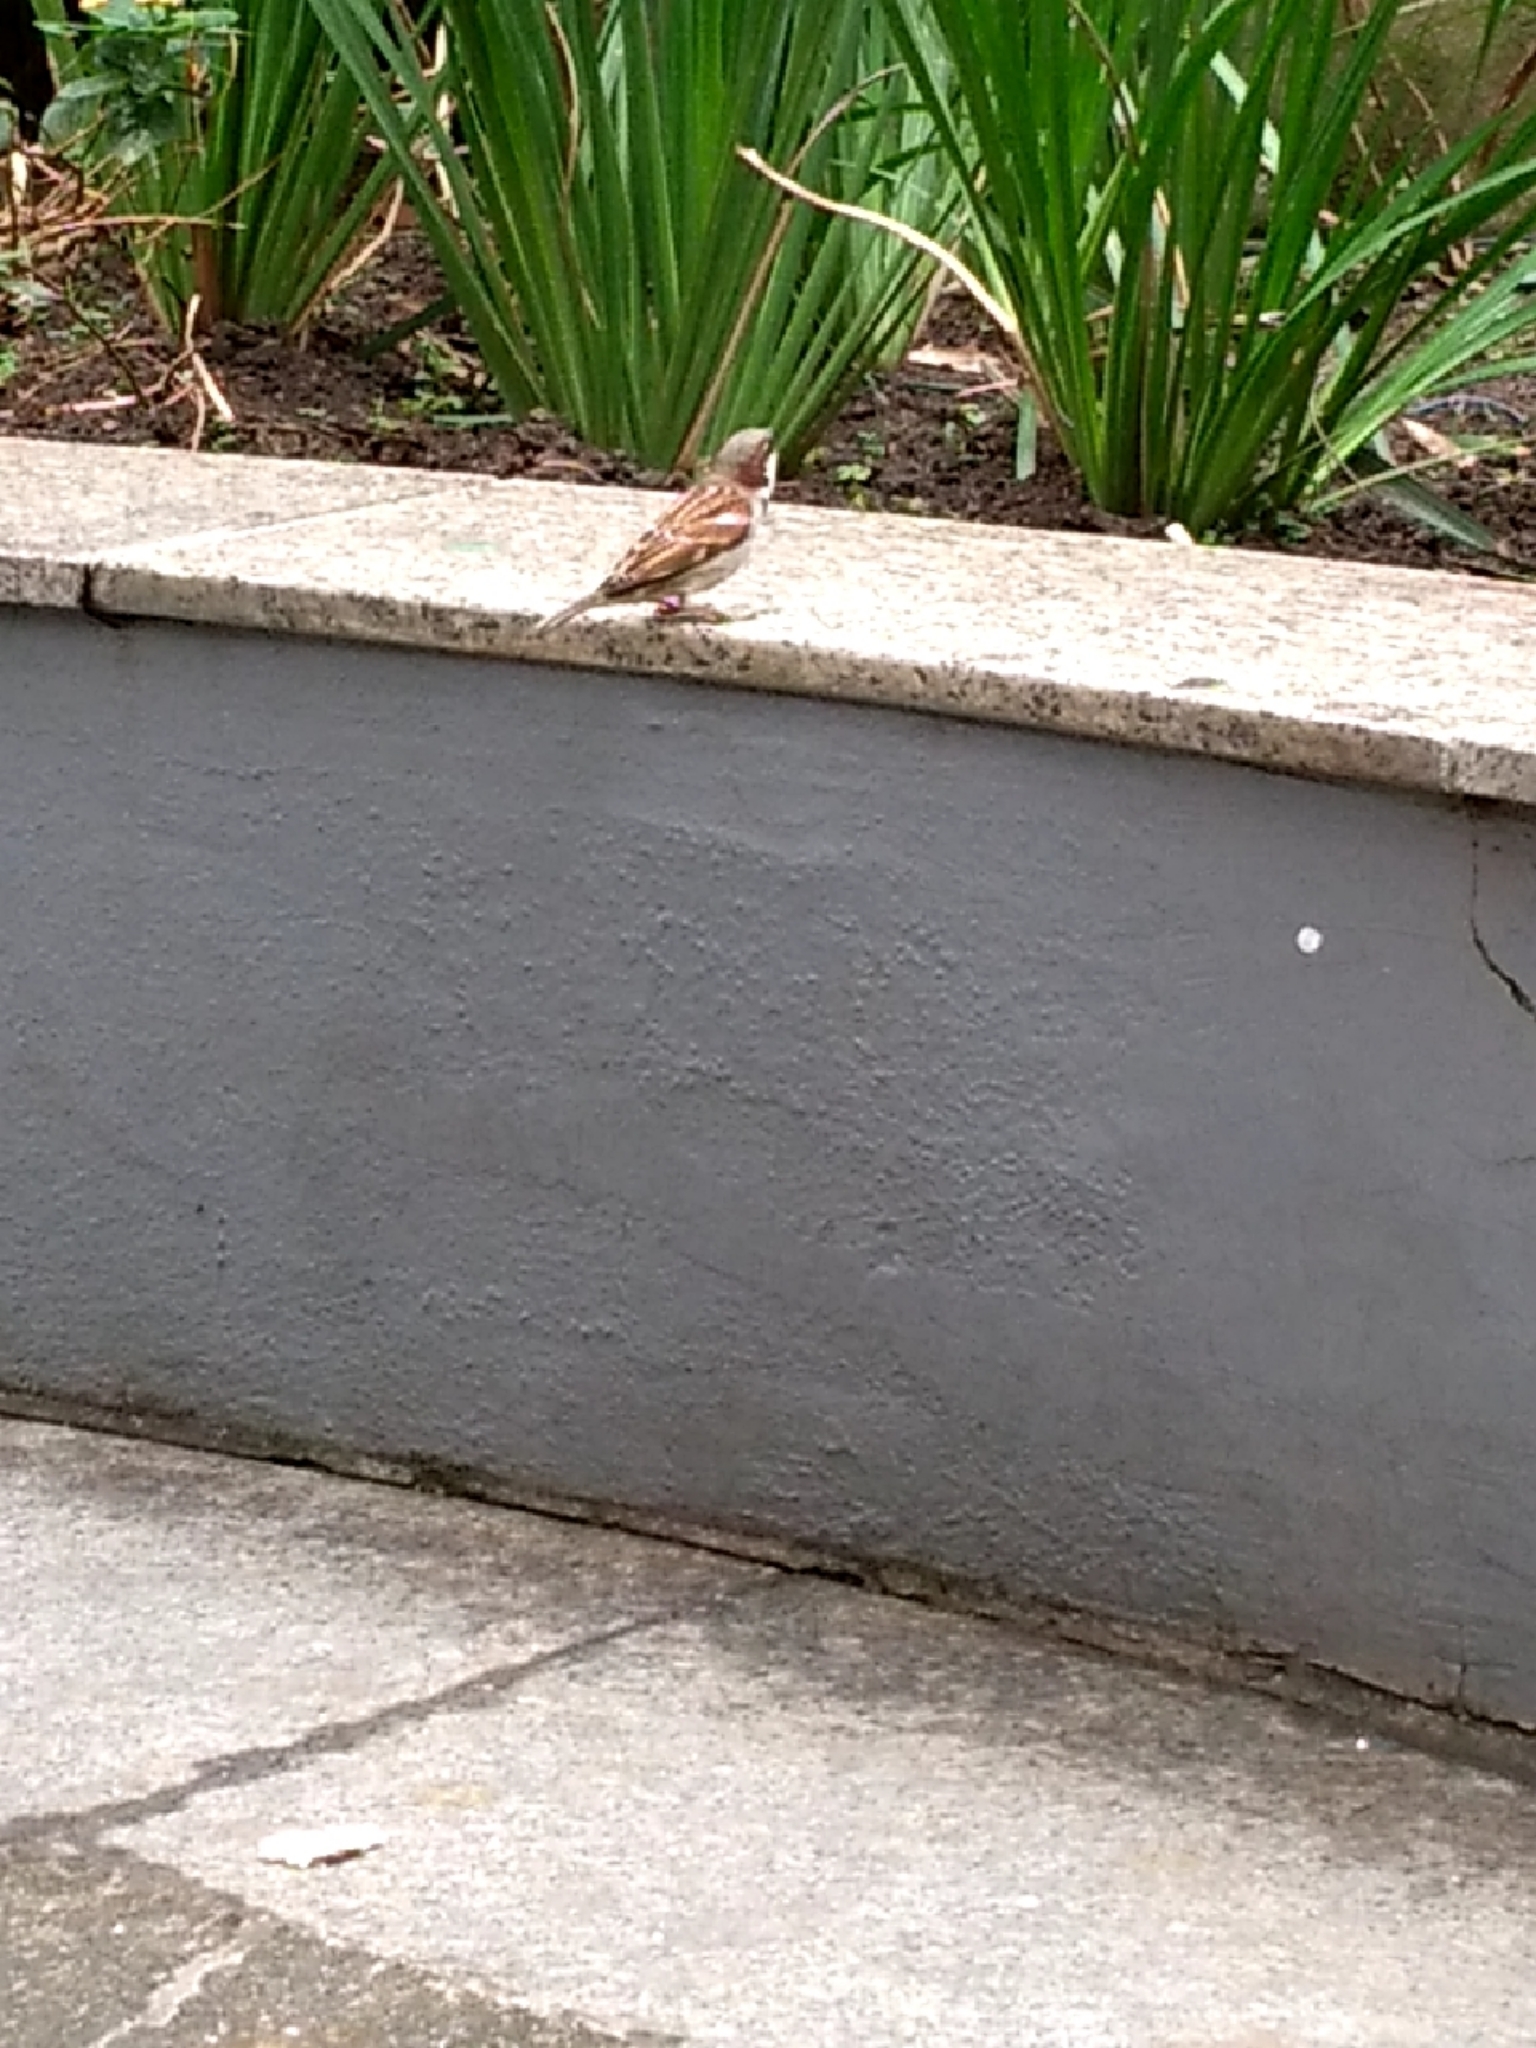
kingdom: Animalia
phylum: Chordata
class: Aves
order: Passeriformes
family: Passeridae
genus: Passer
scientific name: Passer domesticus
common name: House sparrow
